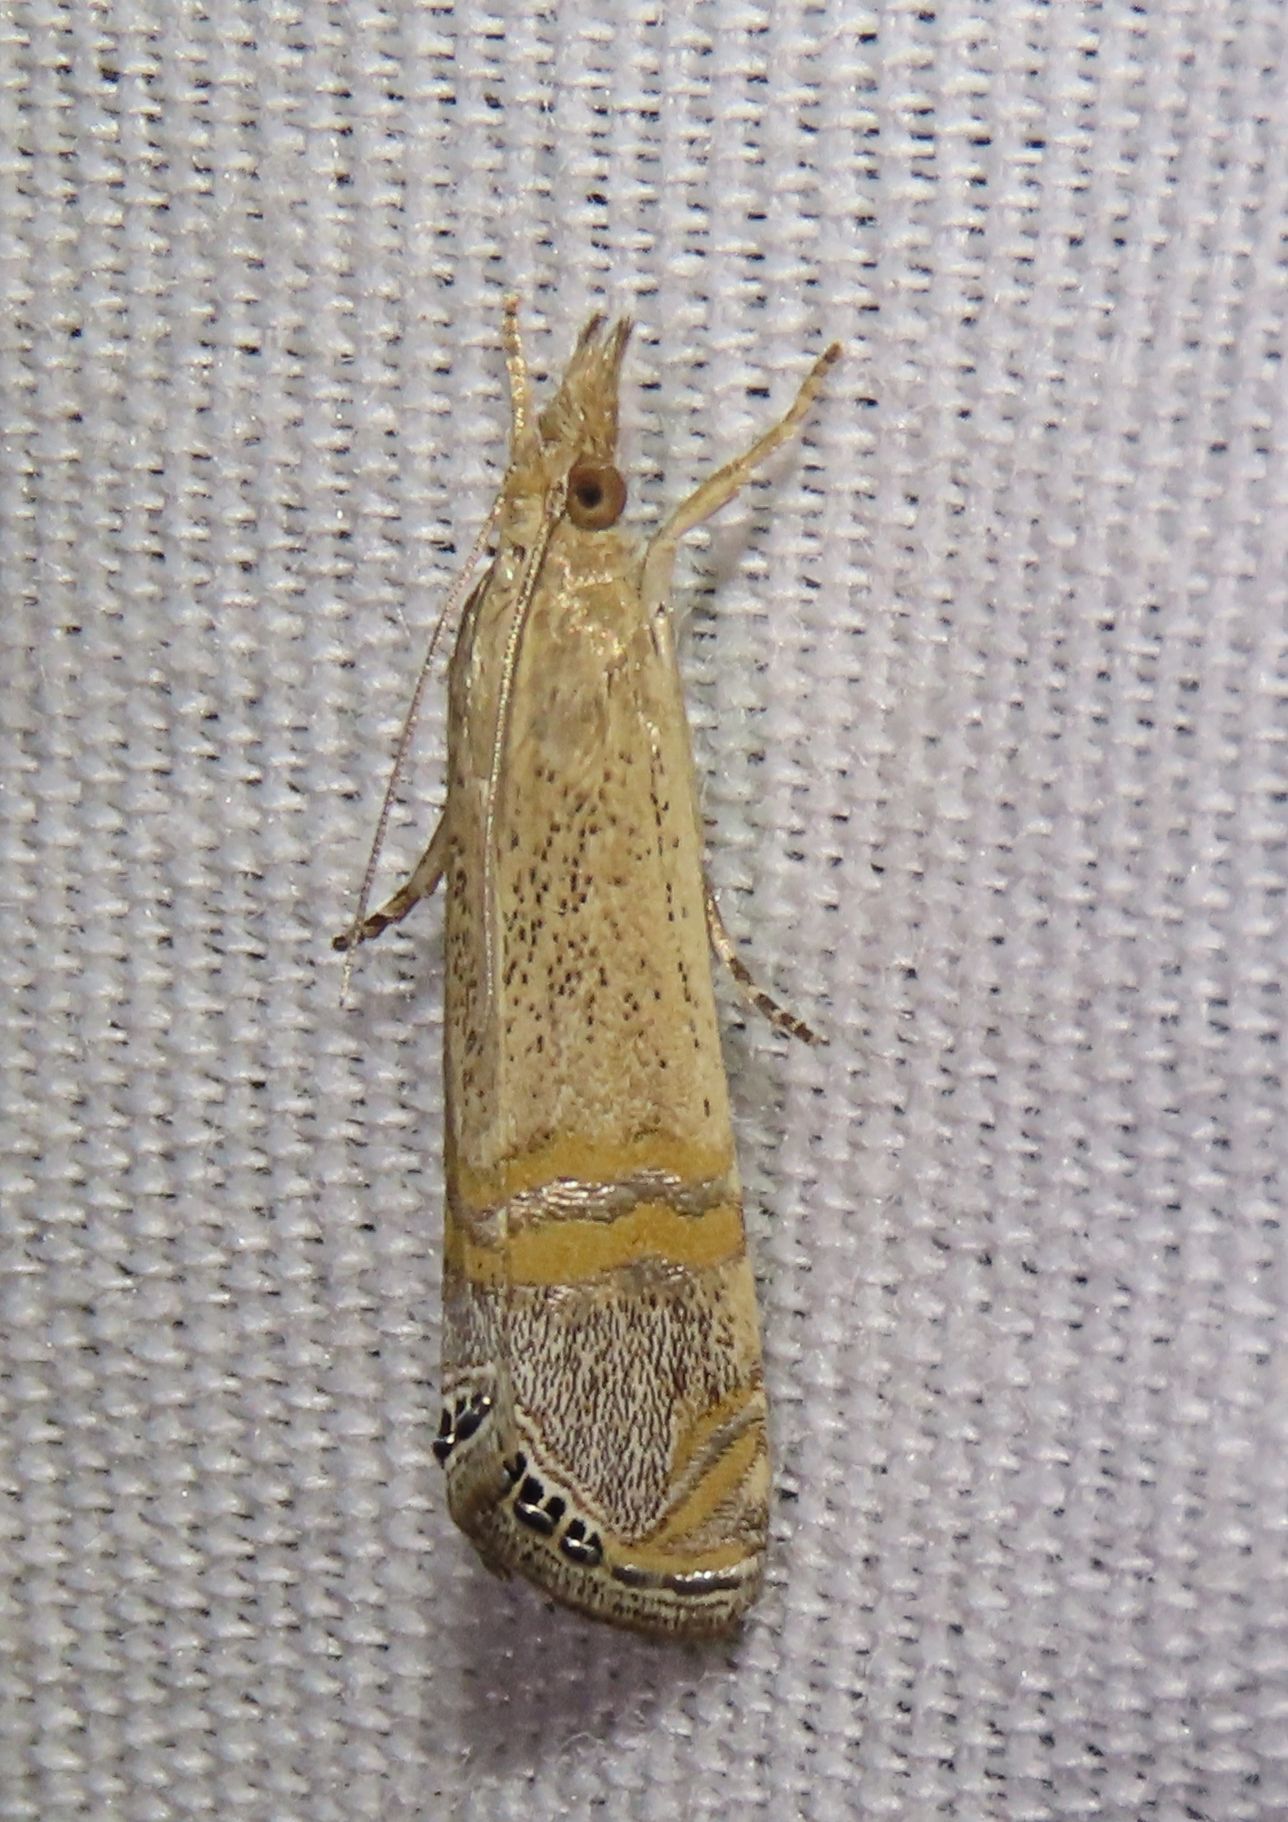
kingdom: Animalia
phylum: Arthropoda
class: Insecta
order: Lepidoptera
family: Crambidae
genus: Euchromius
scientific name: Euchromius ocellea
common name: Necklace veneer moth
